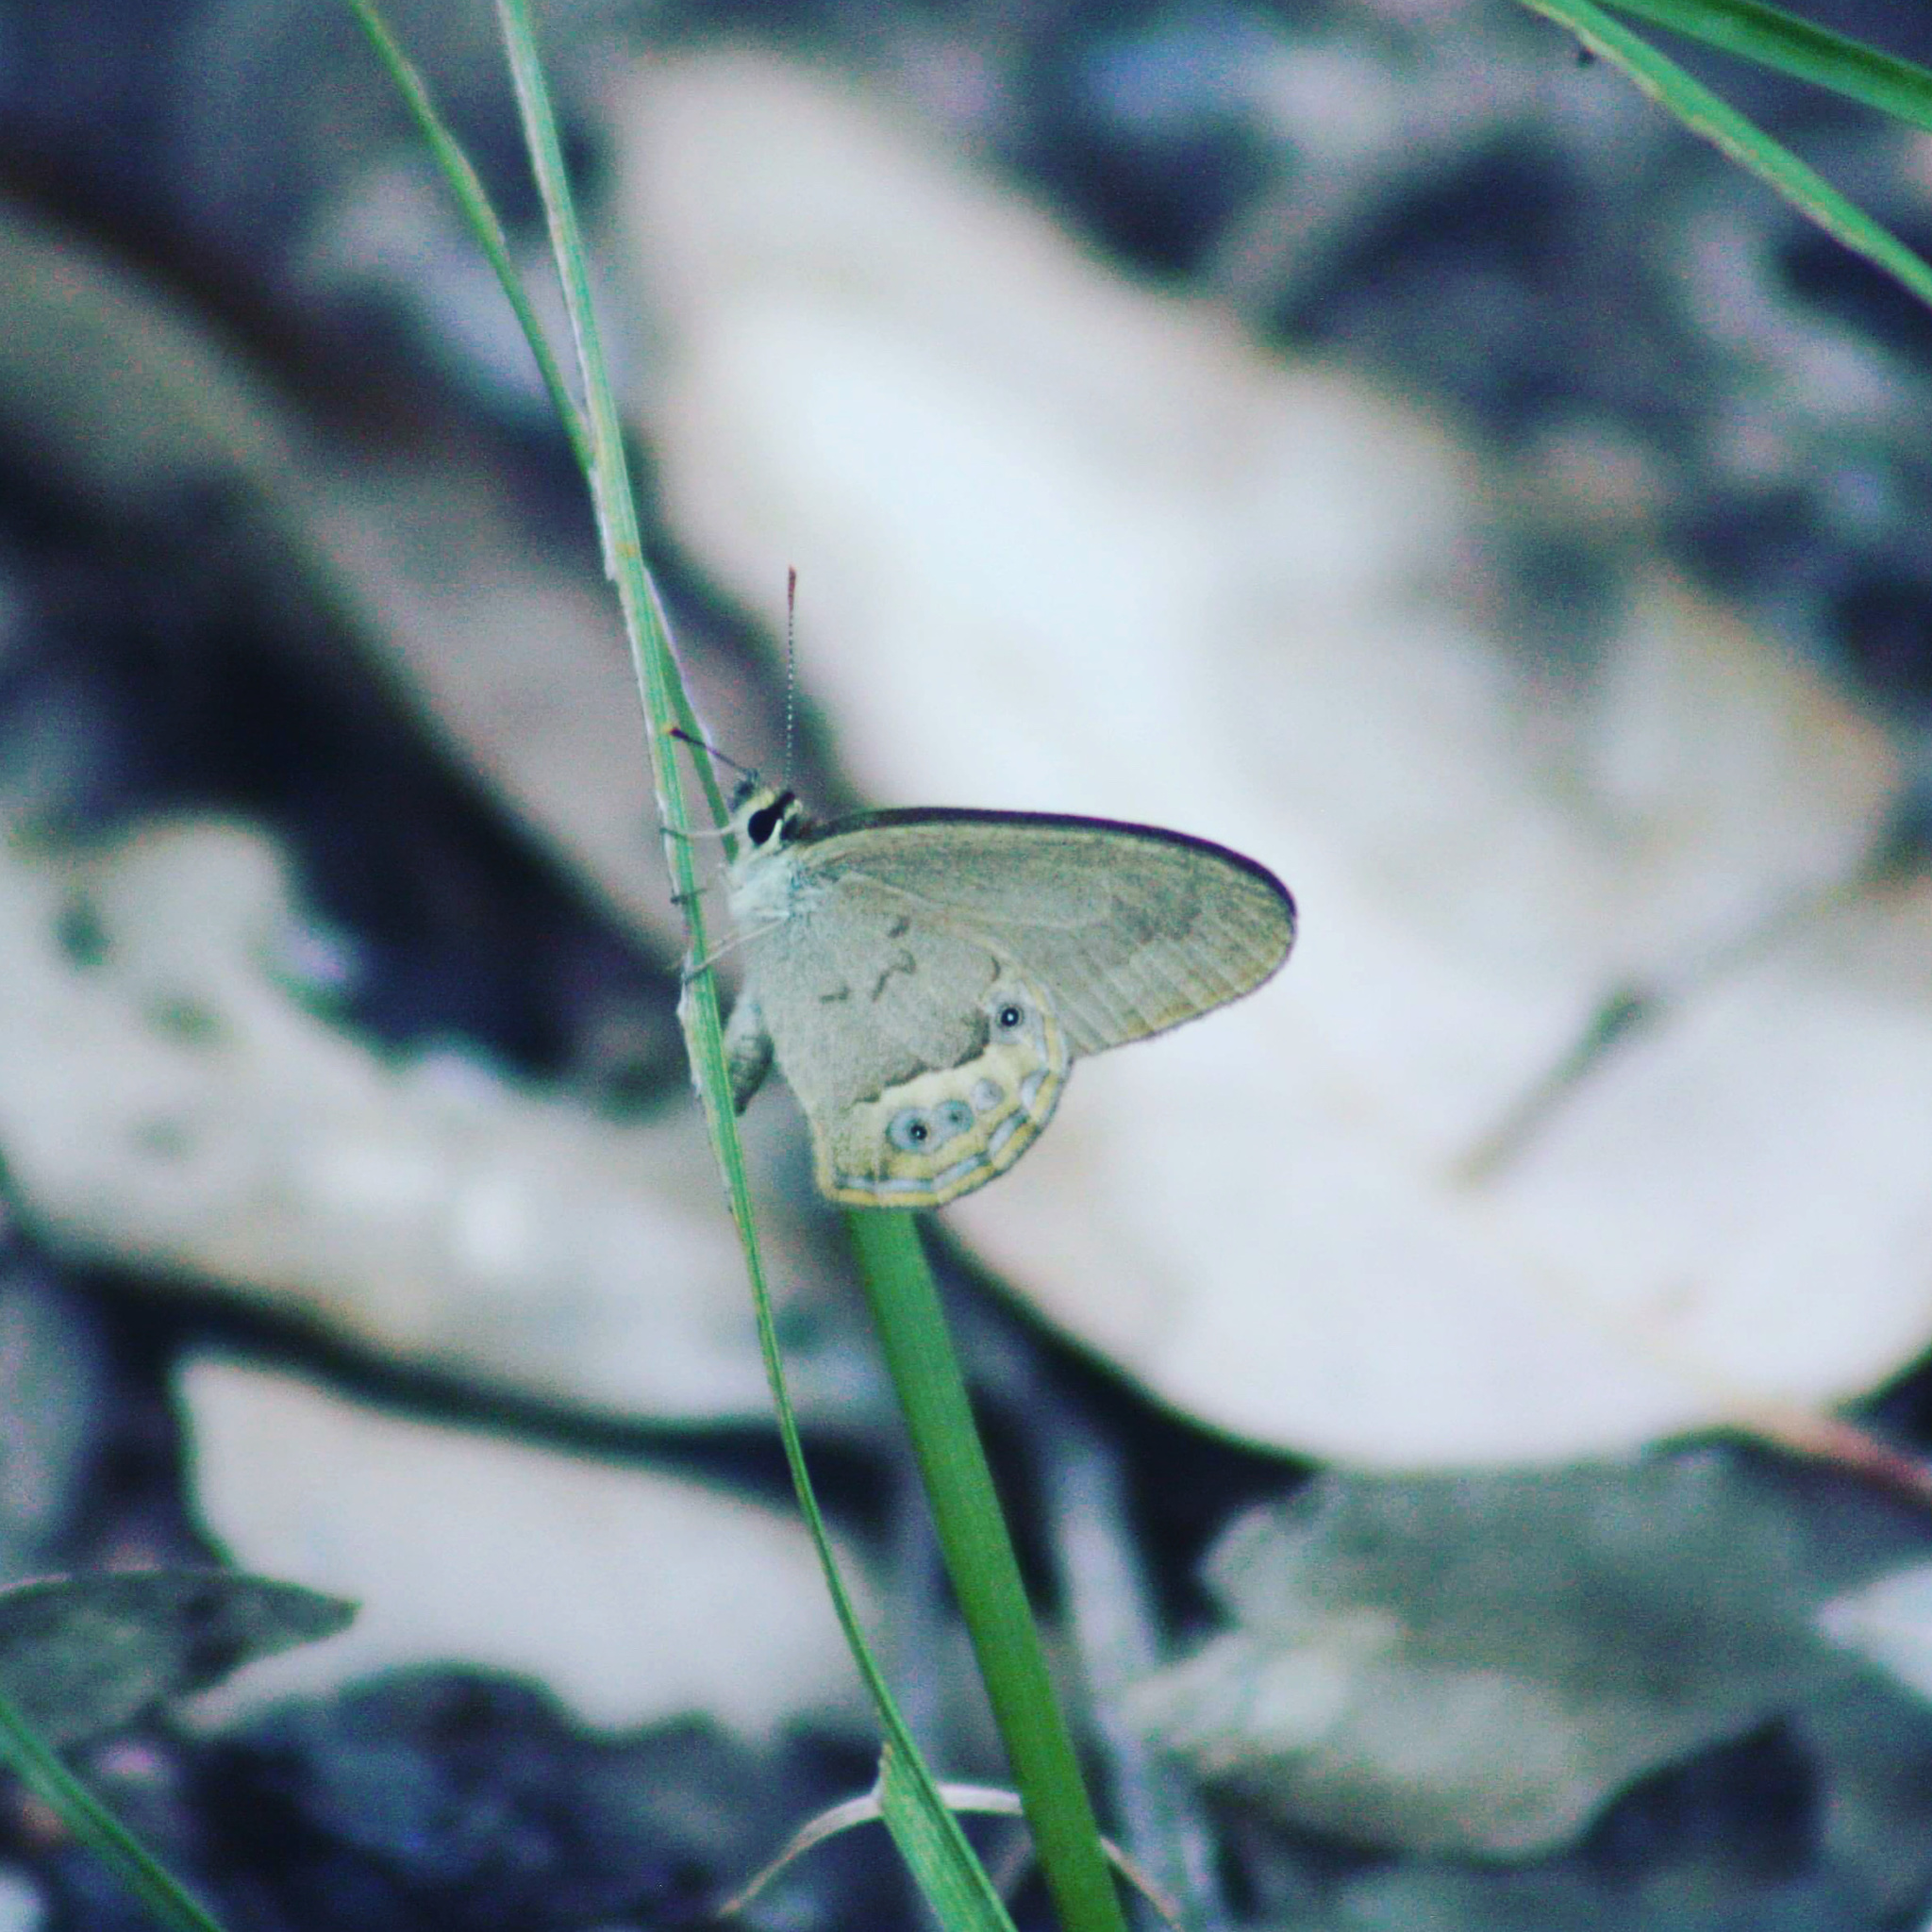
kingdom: Animalia
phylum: Arthropoda
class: Insecta
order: Lepidoptera
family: Nymphalidae
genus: Hypocysta
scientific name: Hypocysta pseudirius
